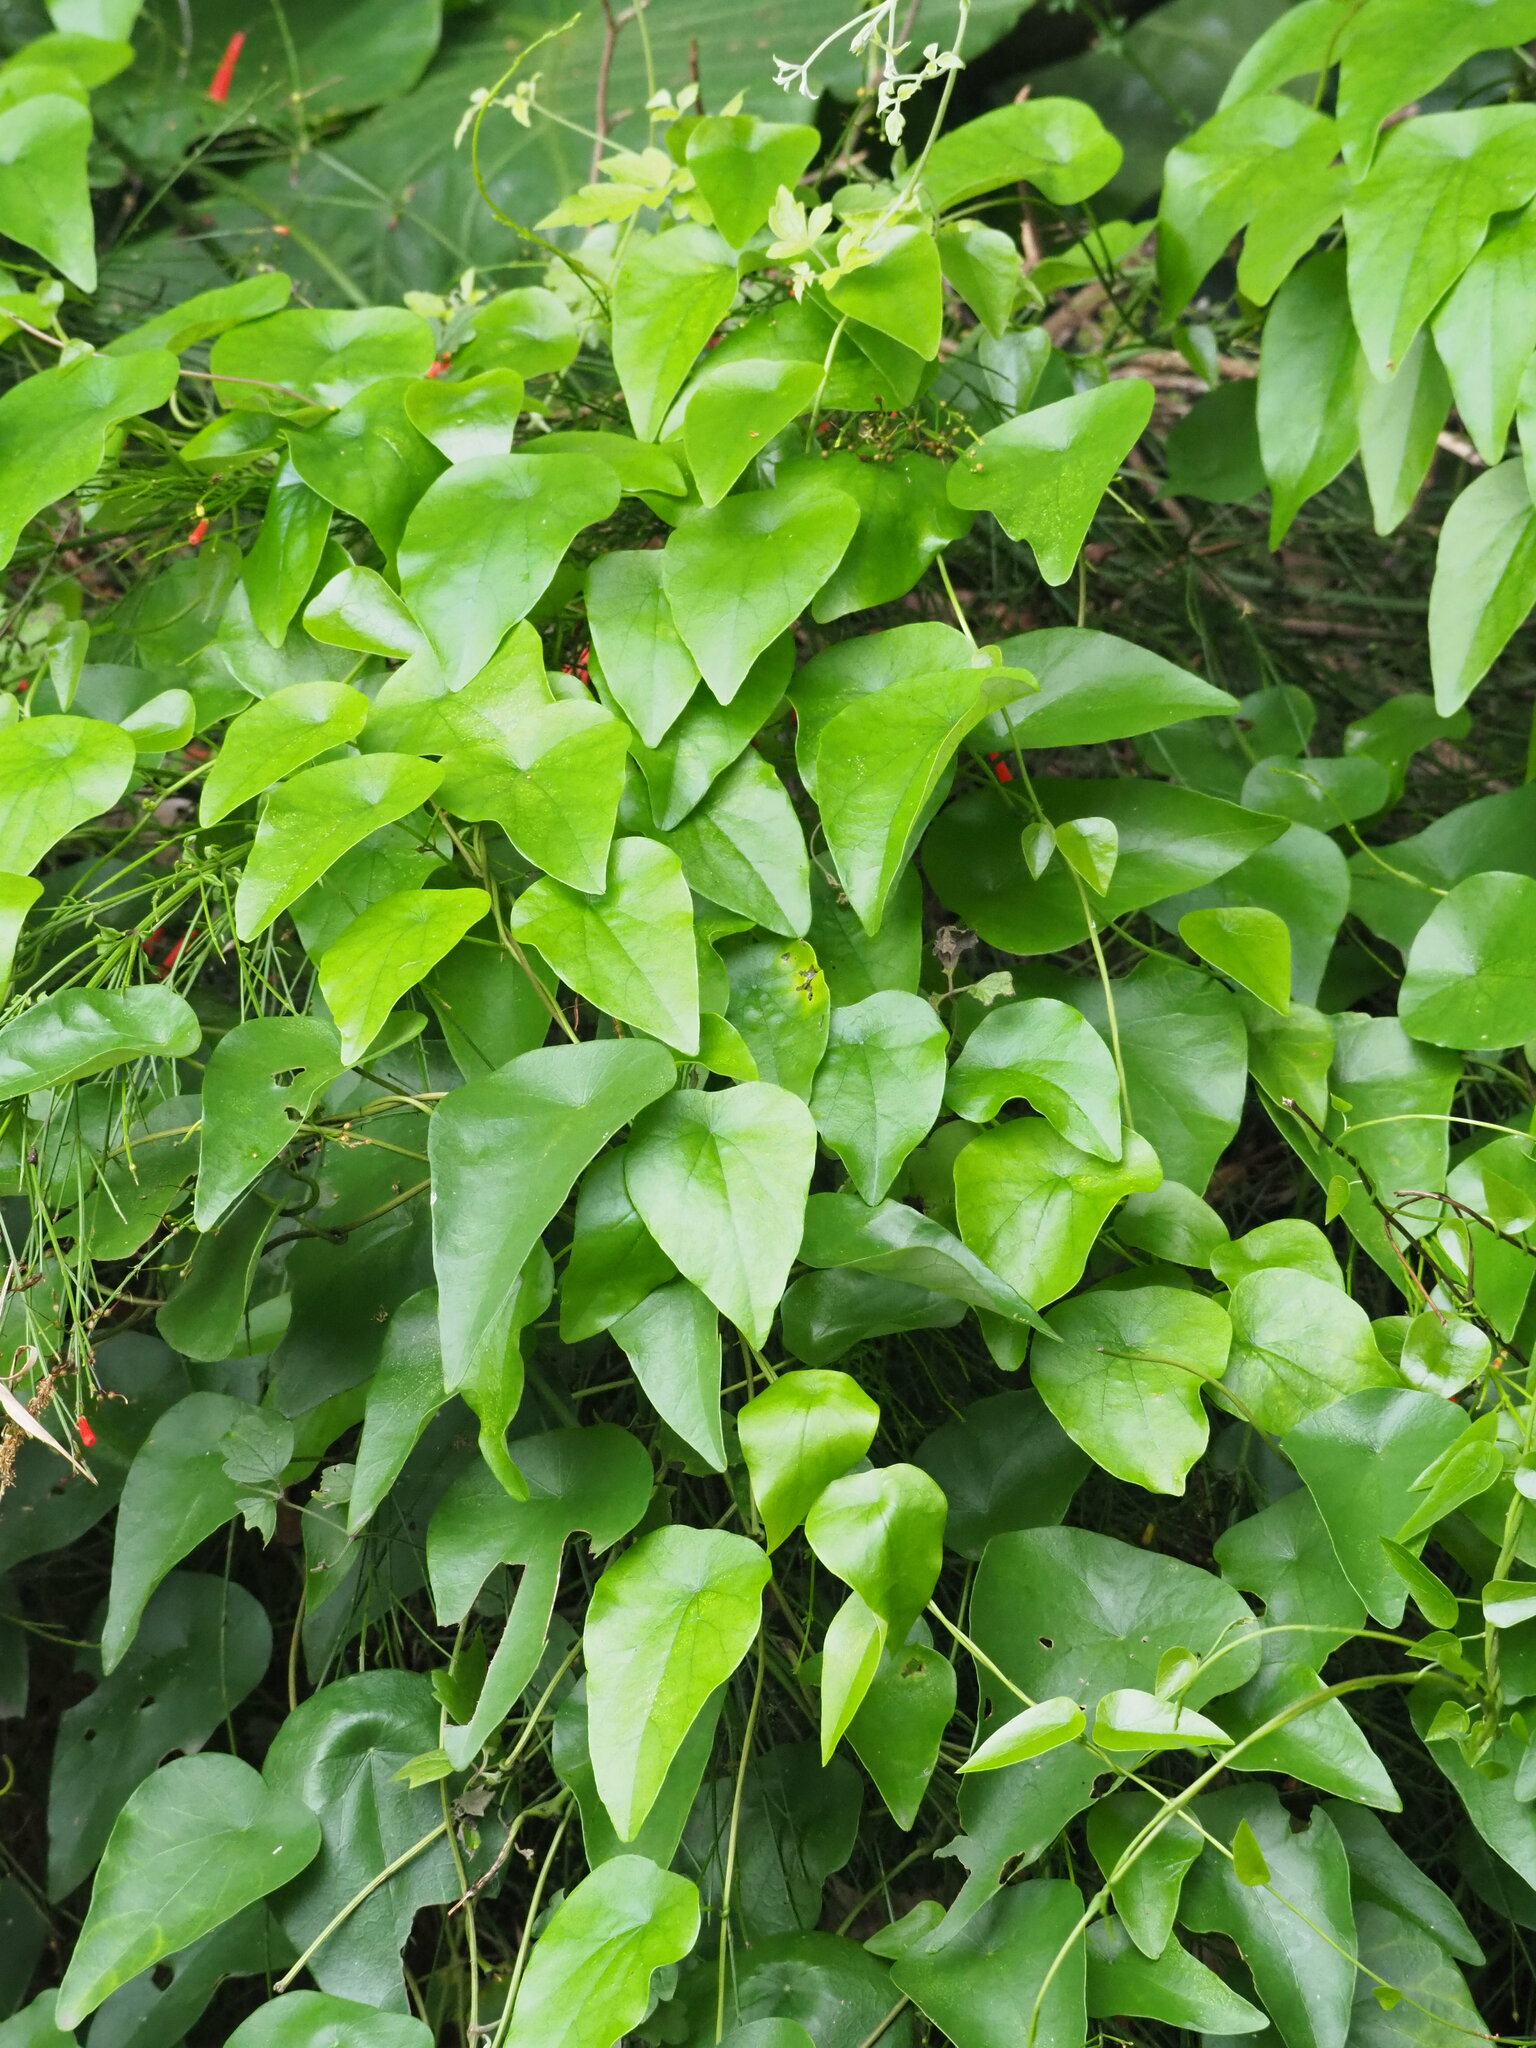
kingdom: Plantae
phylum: Tracheophyta
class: Magnoliopsida
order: Ranunculales
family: Menispermaceae
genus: Stephania
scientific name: Stephania longa
